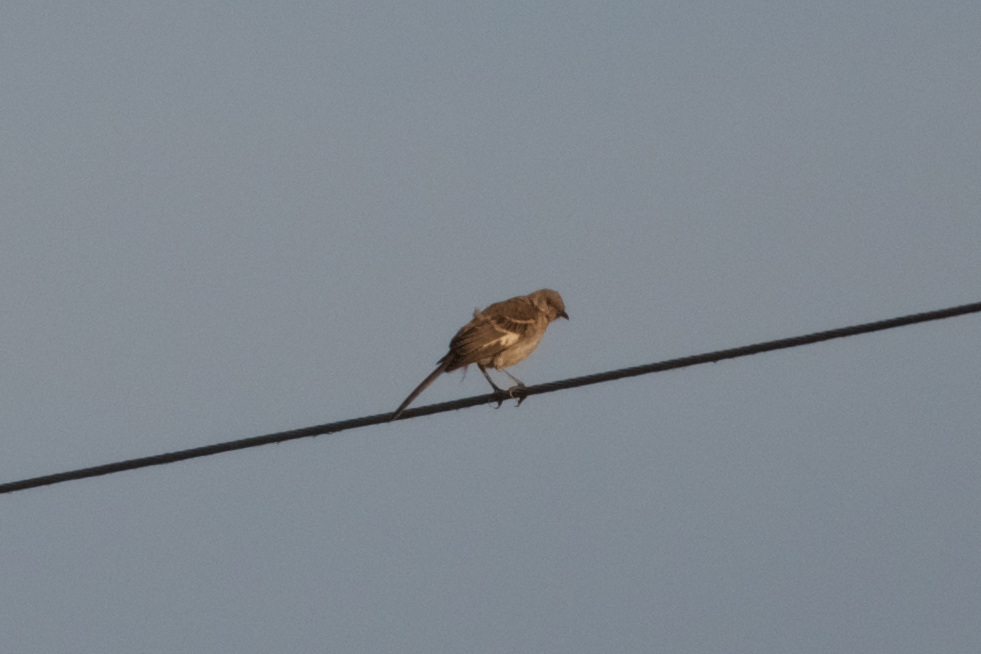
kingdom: Animalia
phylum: Chordata
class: Aves
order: Passeriformes
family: Mimidae
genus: Mimus
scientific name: Mimus polyglottos
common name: Northern mockingbird
